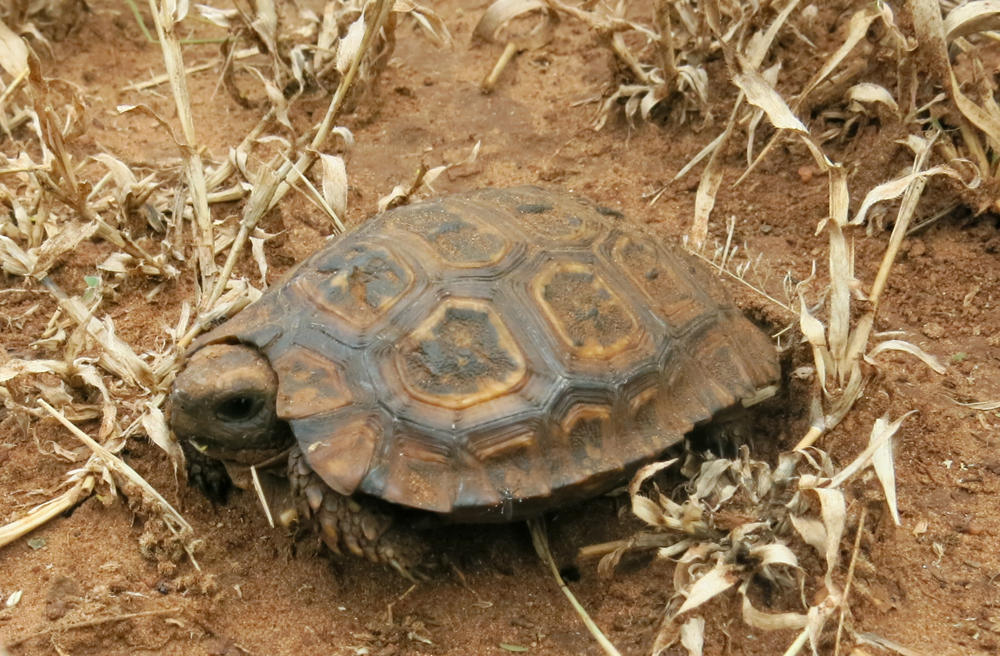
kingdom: Animalia
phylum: Chordata
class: Testudines
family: Testudinidae
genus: Kinixys
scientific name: Kinixys spekii
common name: Speke's hingeback tortoise
